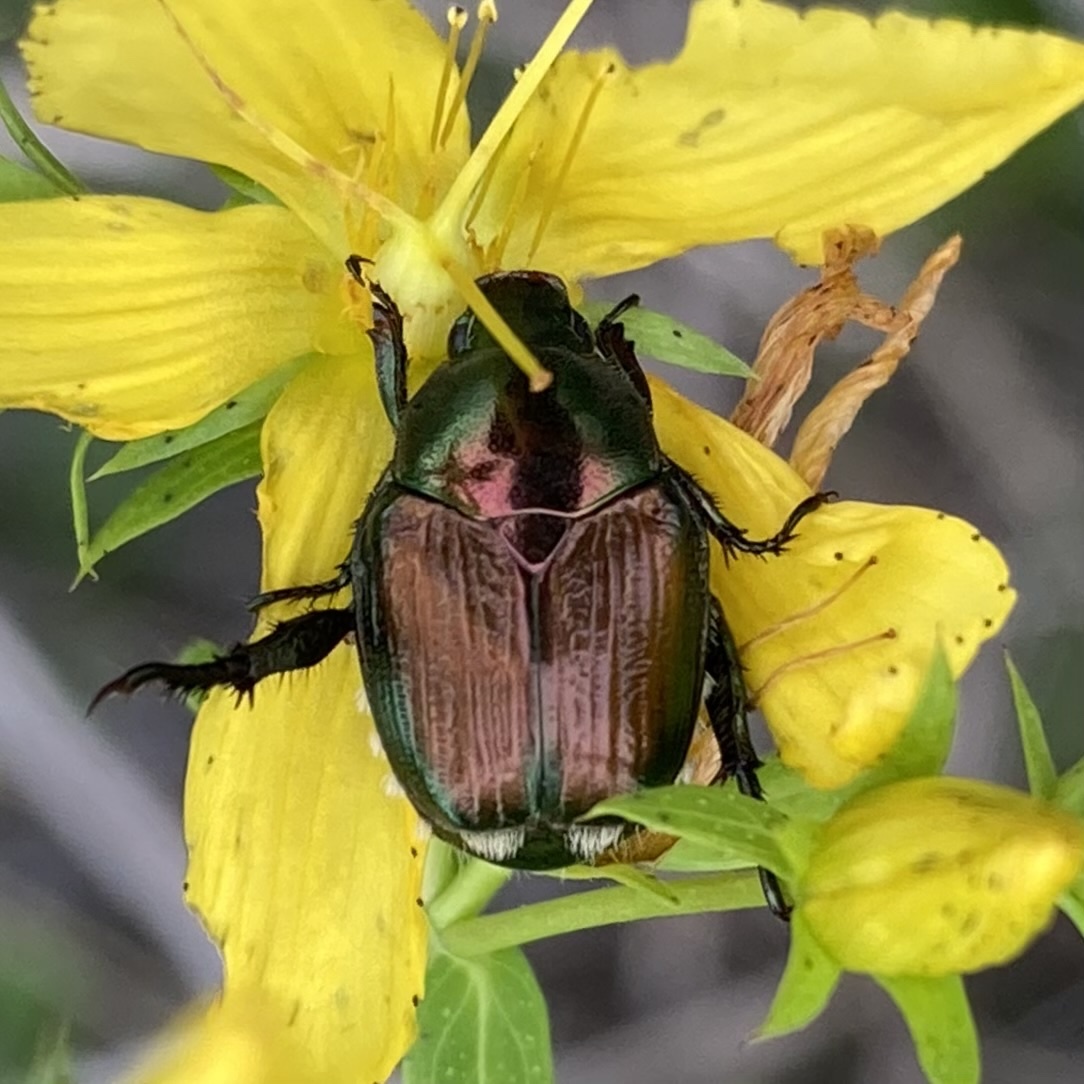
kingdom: Animalia
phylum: Arthropoda
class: Insecta
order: Coleoptera
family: Scarabaeidae
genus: Popillia
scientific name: Popillia japonica
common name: Japanese beetle
